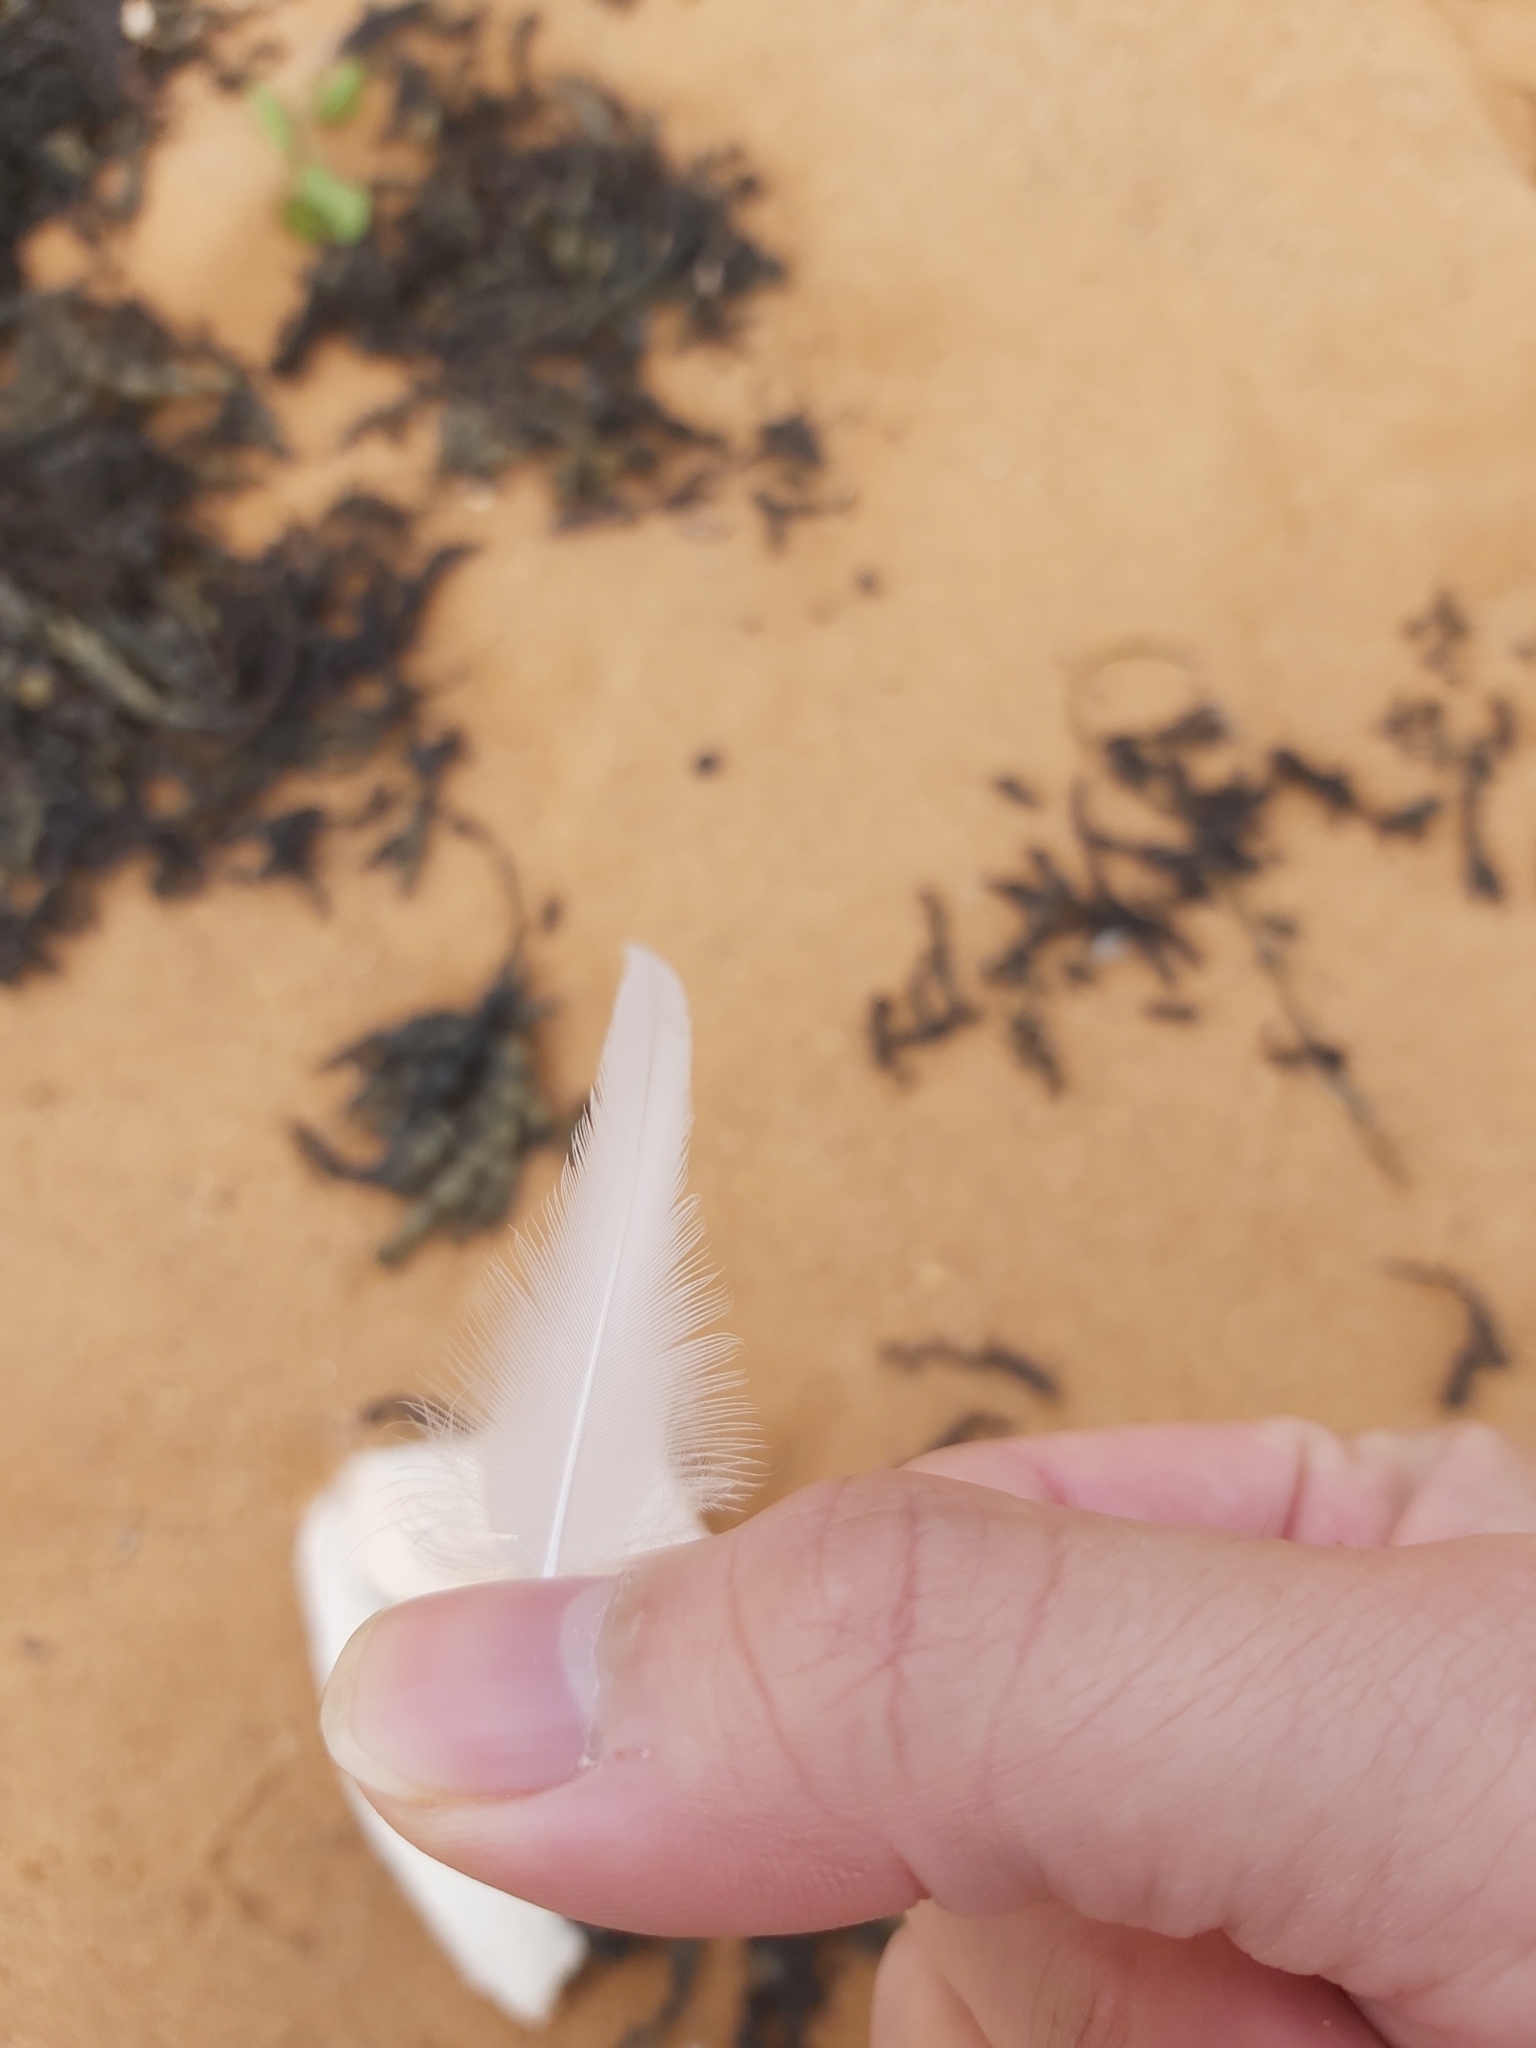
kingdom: Animalia
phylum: Chordata
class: Aves
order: Pelecaniformes
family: Pelecanidae
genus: Pelecanus
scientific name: Pelecanus conspicillatus
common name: Australian pelican
